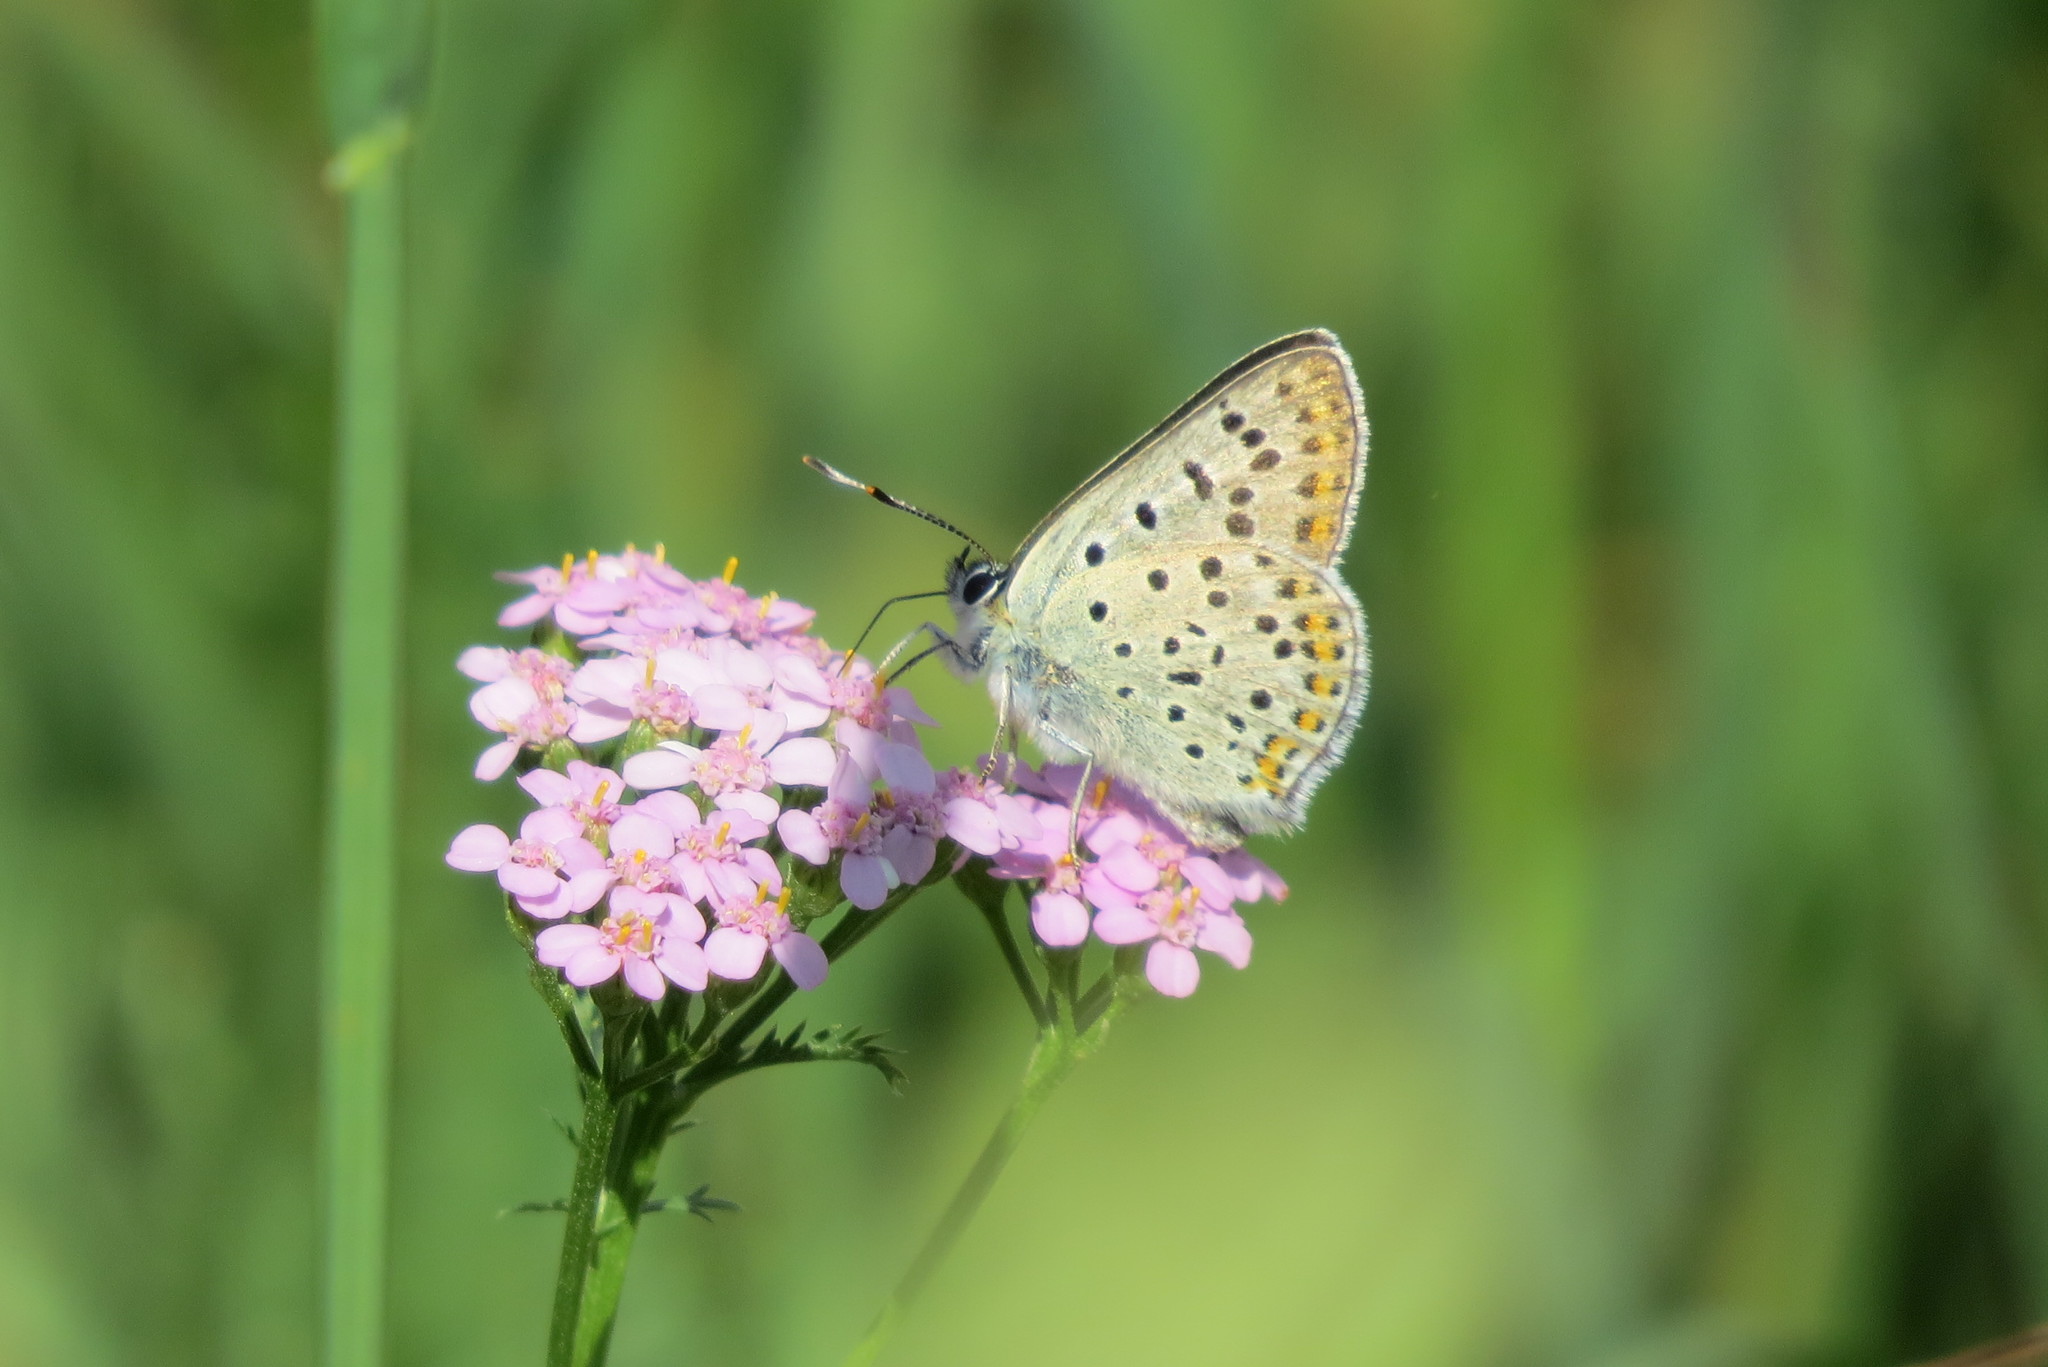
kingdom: Animalia
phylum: Arthropoda
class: Insecta
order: Lepidoptera
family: Lycaenidae
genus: Loweia
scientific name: Loweia tityrus
